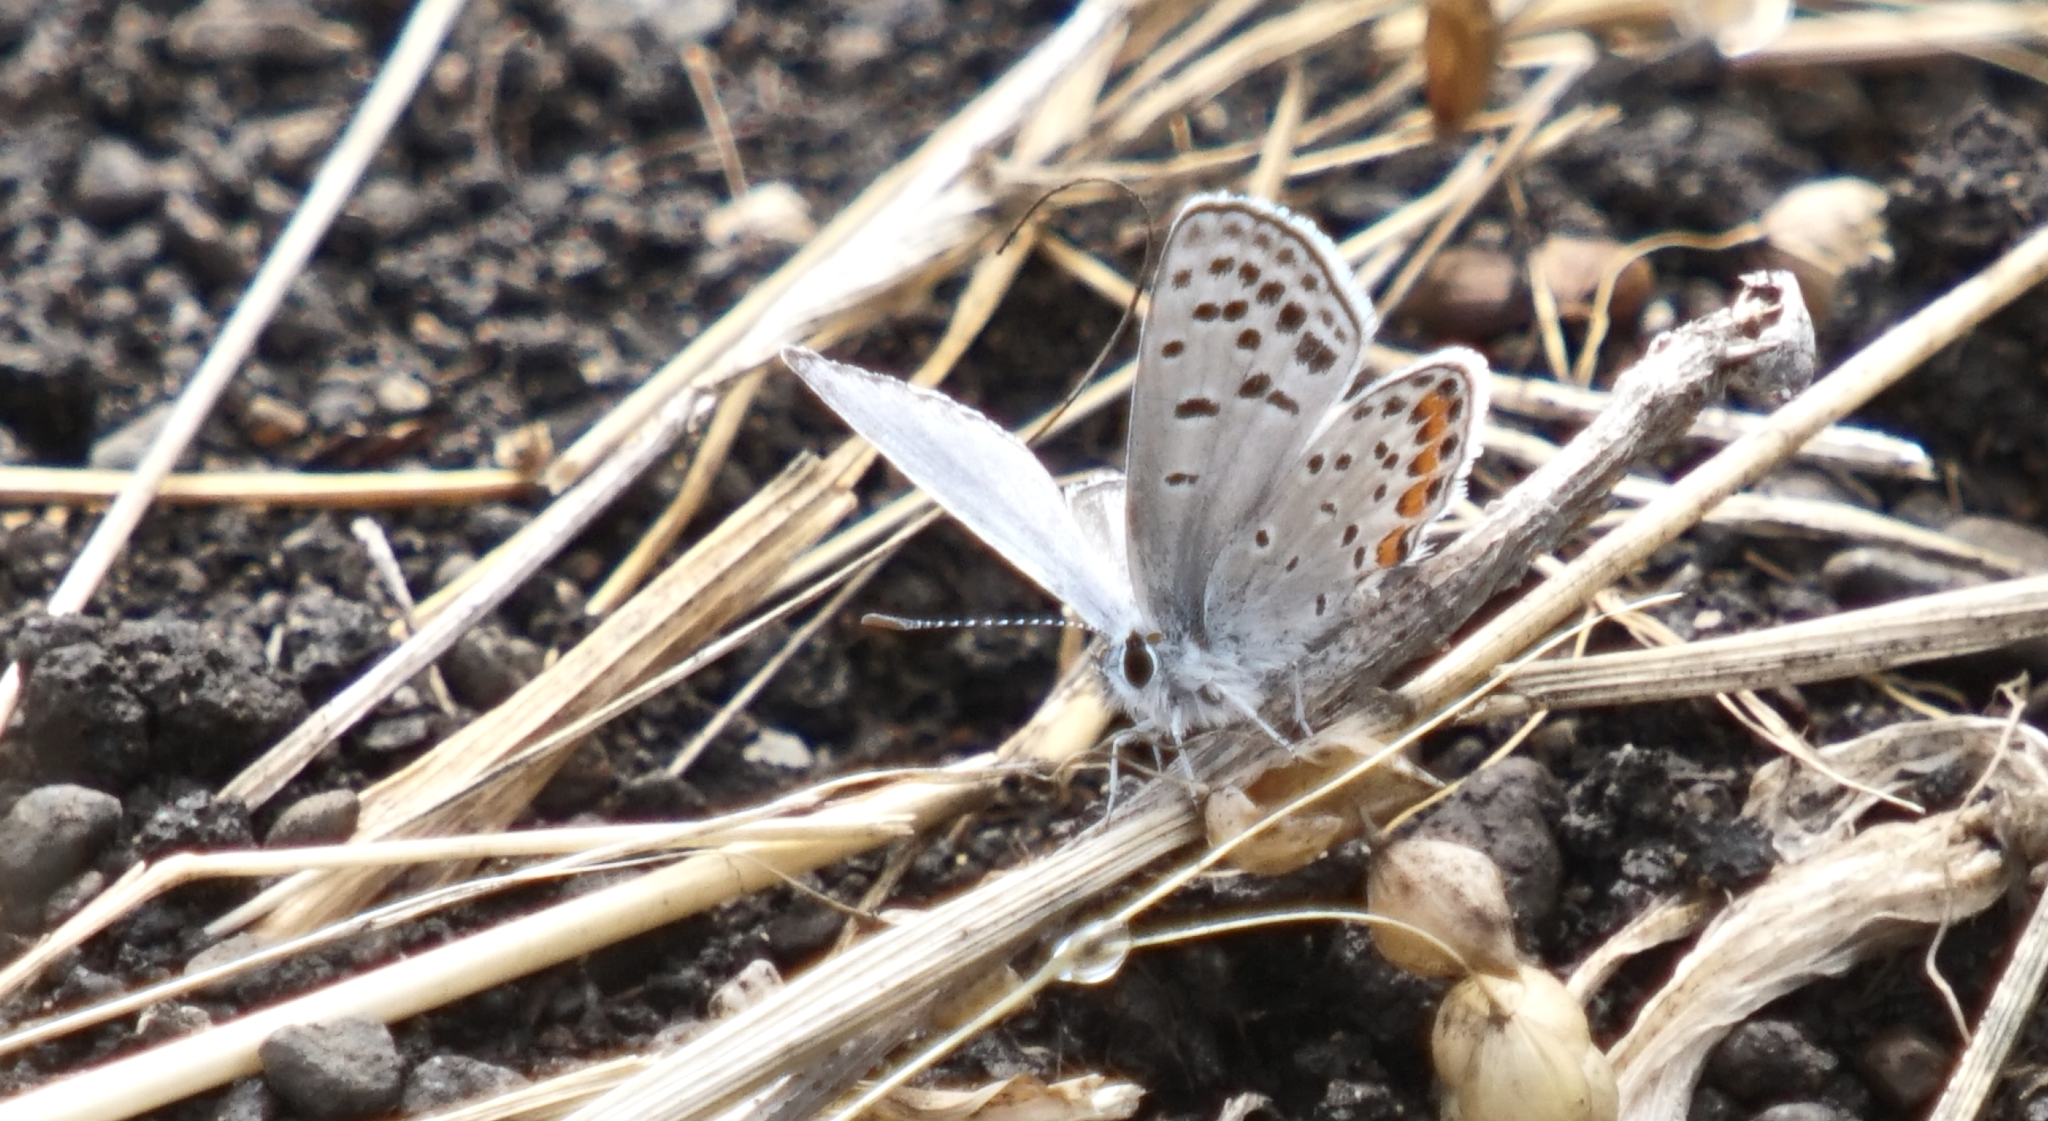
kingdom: Animalia
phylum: Arthropoda
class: Insecta
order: Lepidoptera
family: Lycaenidae
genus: Icaricia
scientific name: Icaricia acmon
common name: Acmon blue
